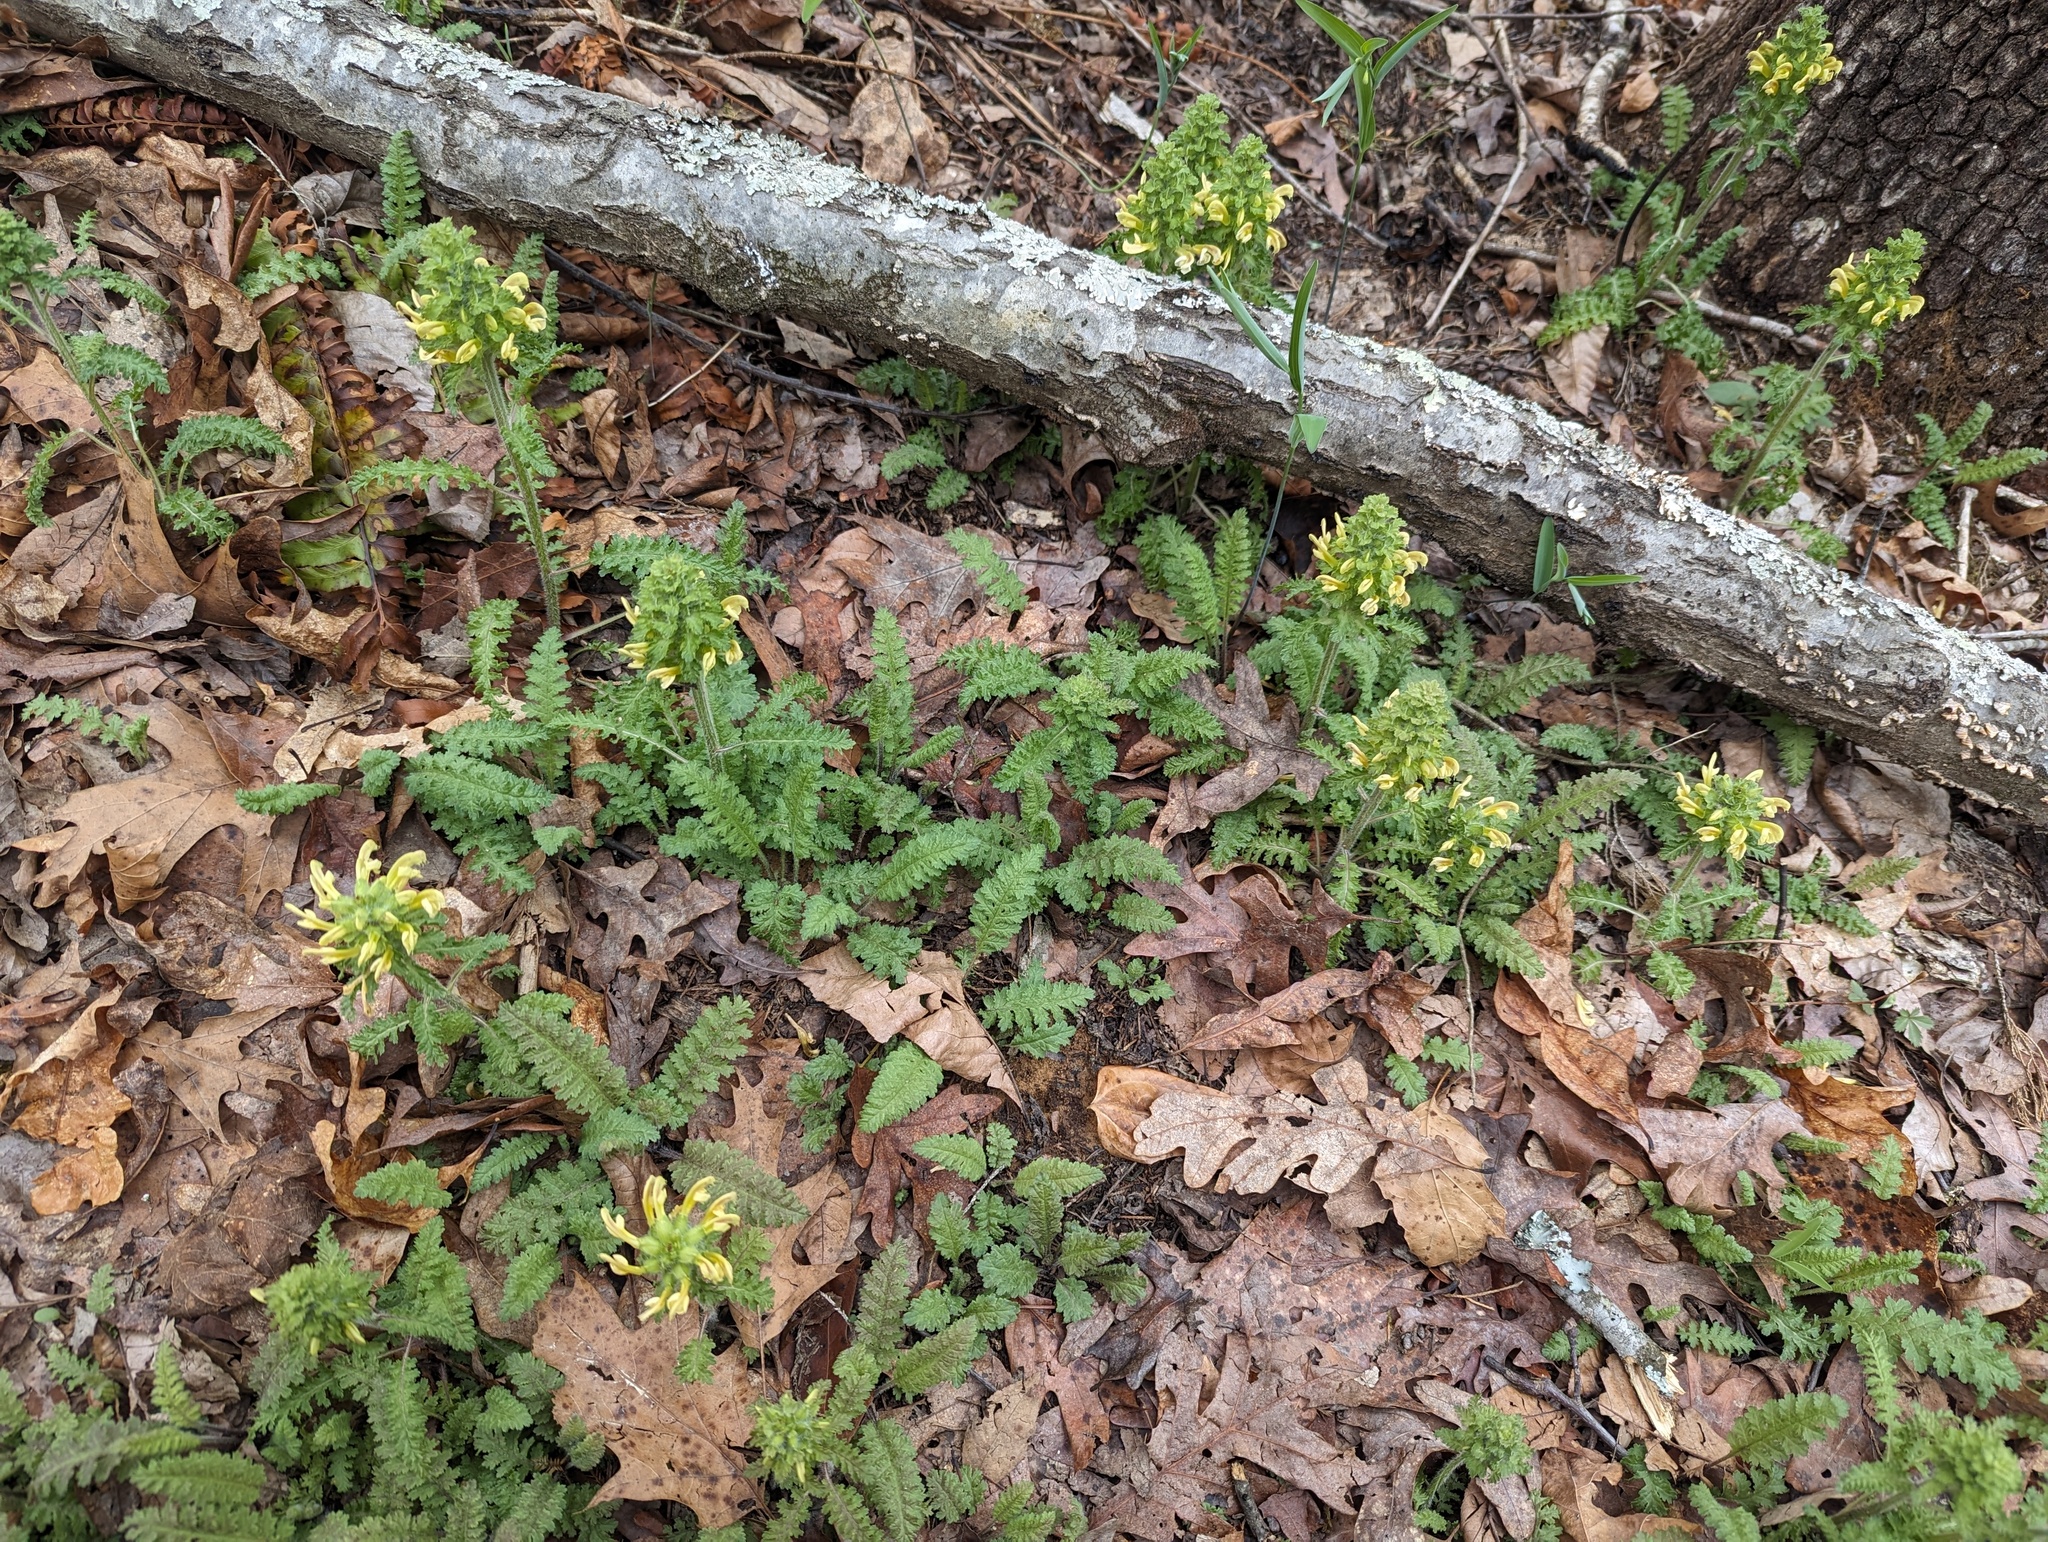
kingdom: Plantae
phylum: Tracheophyta
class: Magnoliopsida
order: Lamiales
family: Orobanchaceae
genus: Pedicularis
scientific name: Pedicularis canadensis
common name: Early lousewort
